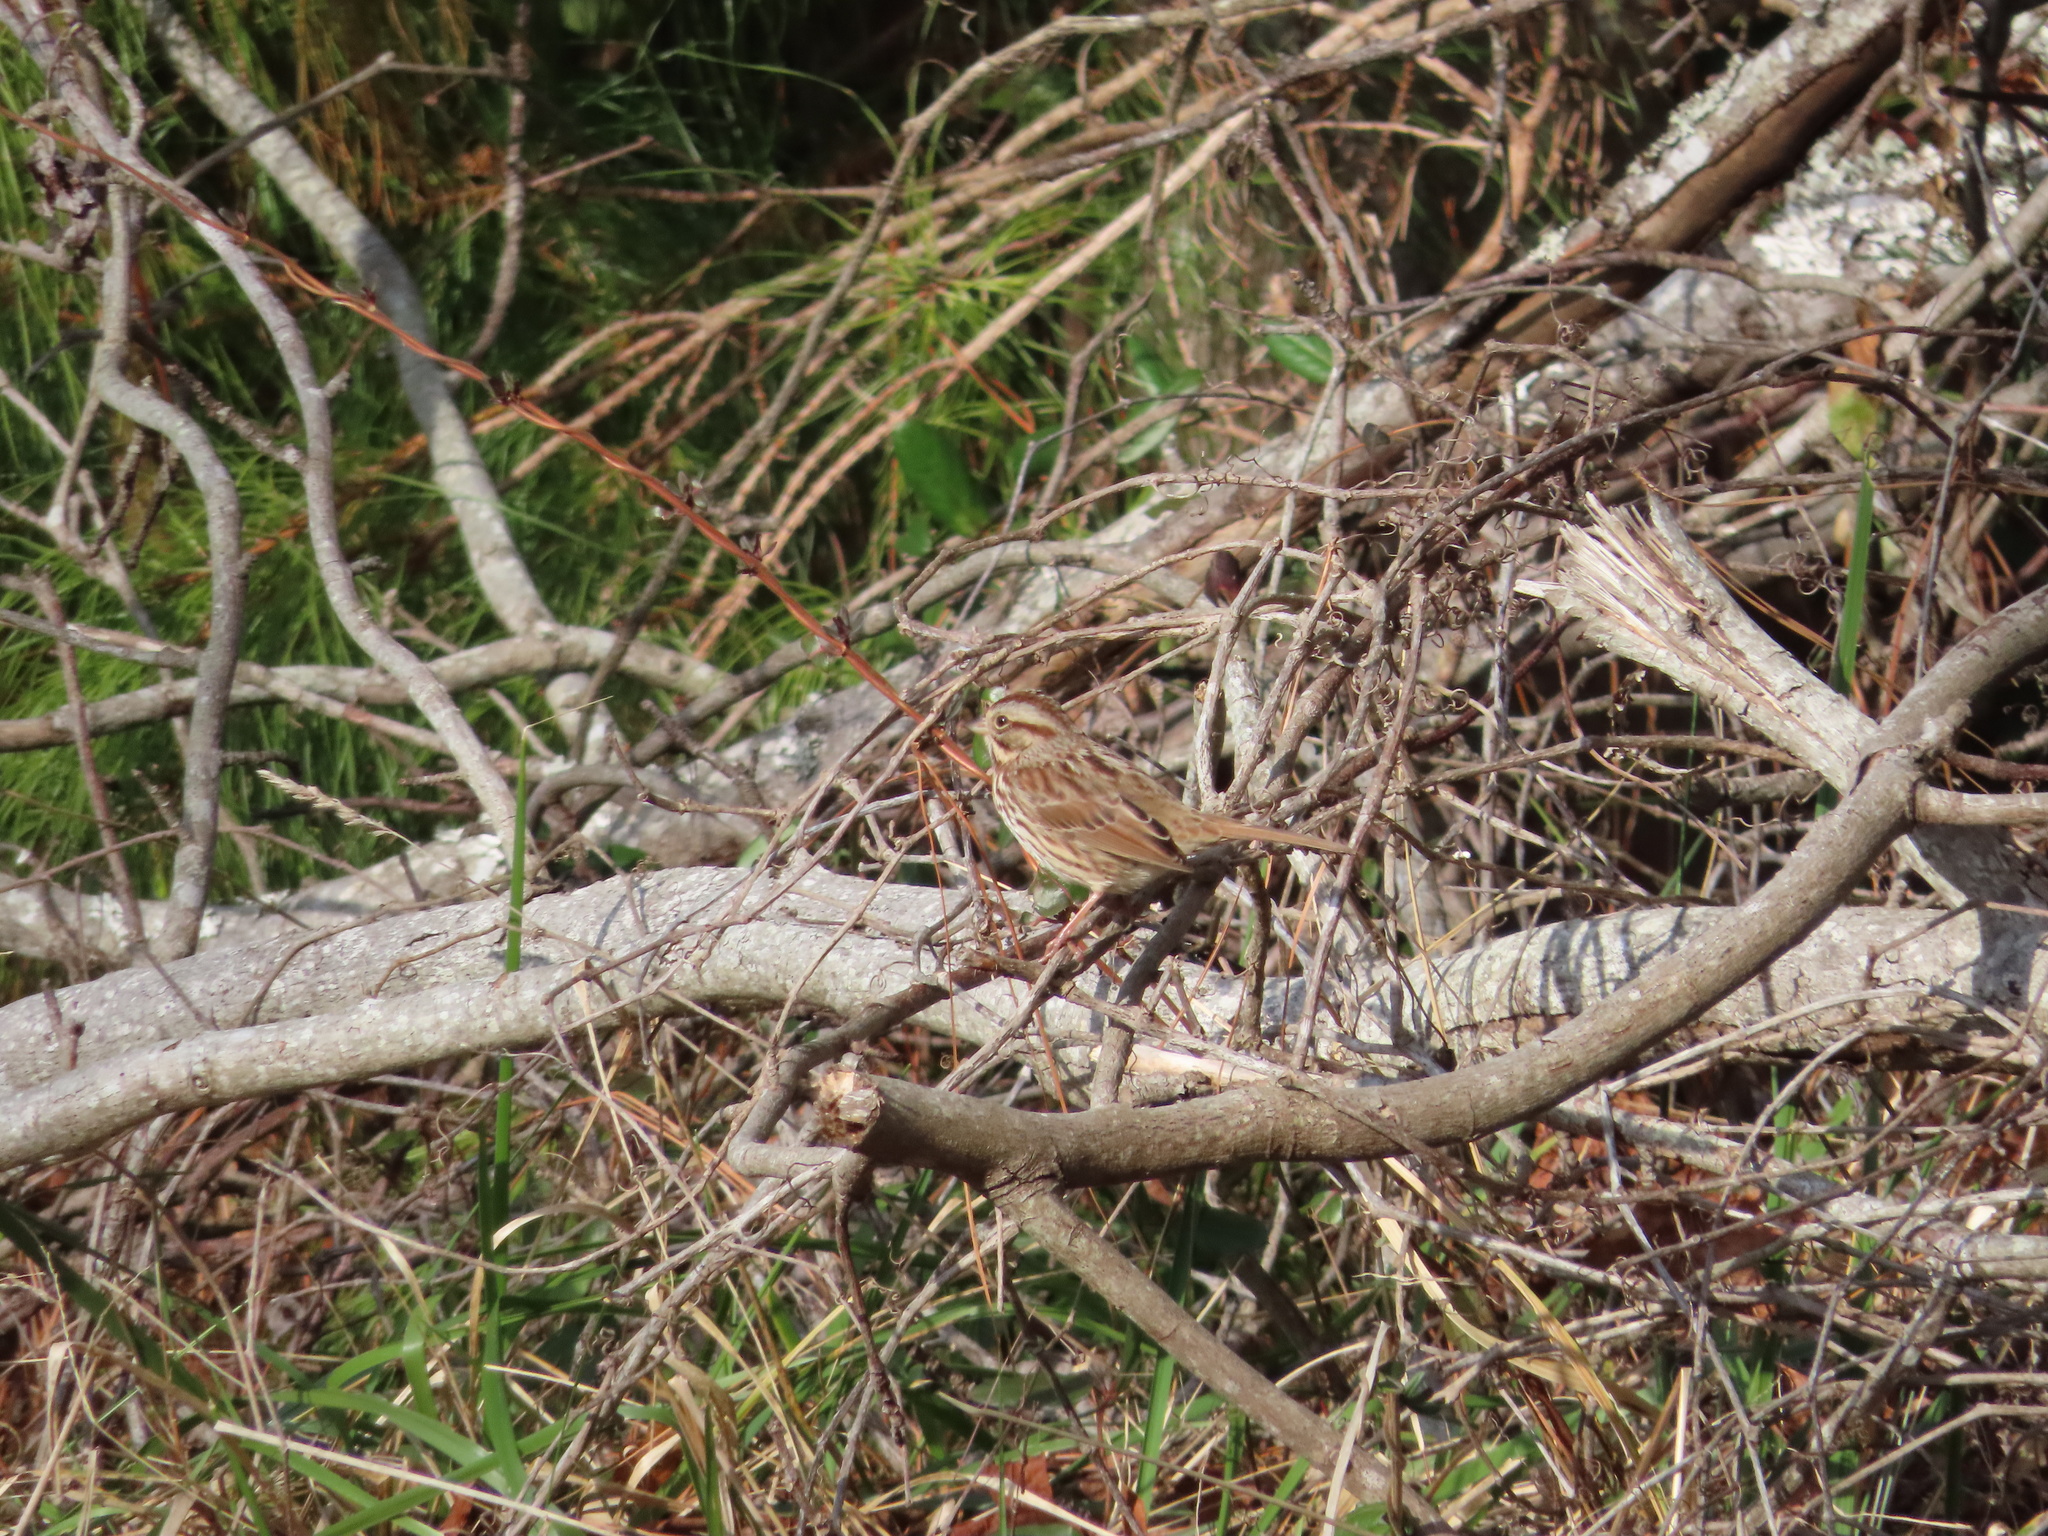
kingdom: Animalia
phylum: Chordata
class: Aves
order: Passeriformes
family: Passerellidae
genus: Melospiza
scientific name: Melospiza melodia
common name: Song sparrow
